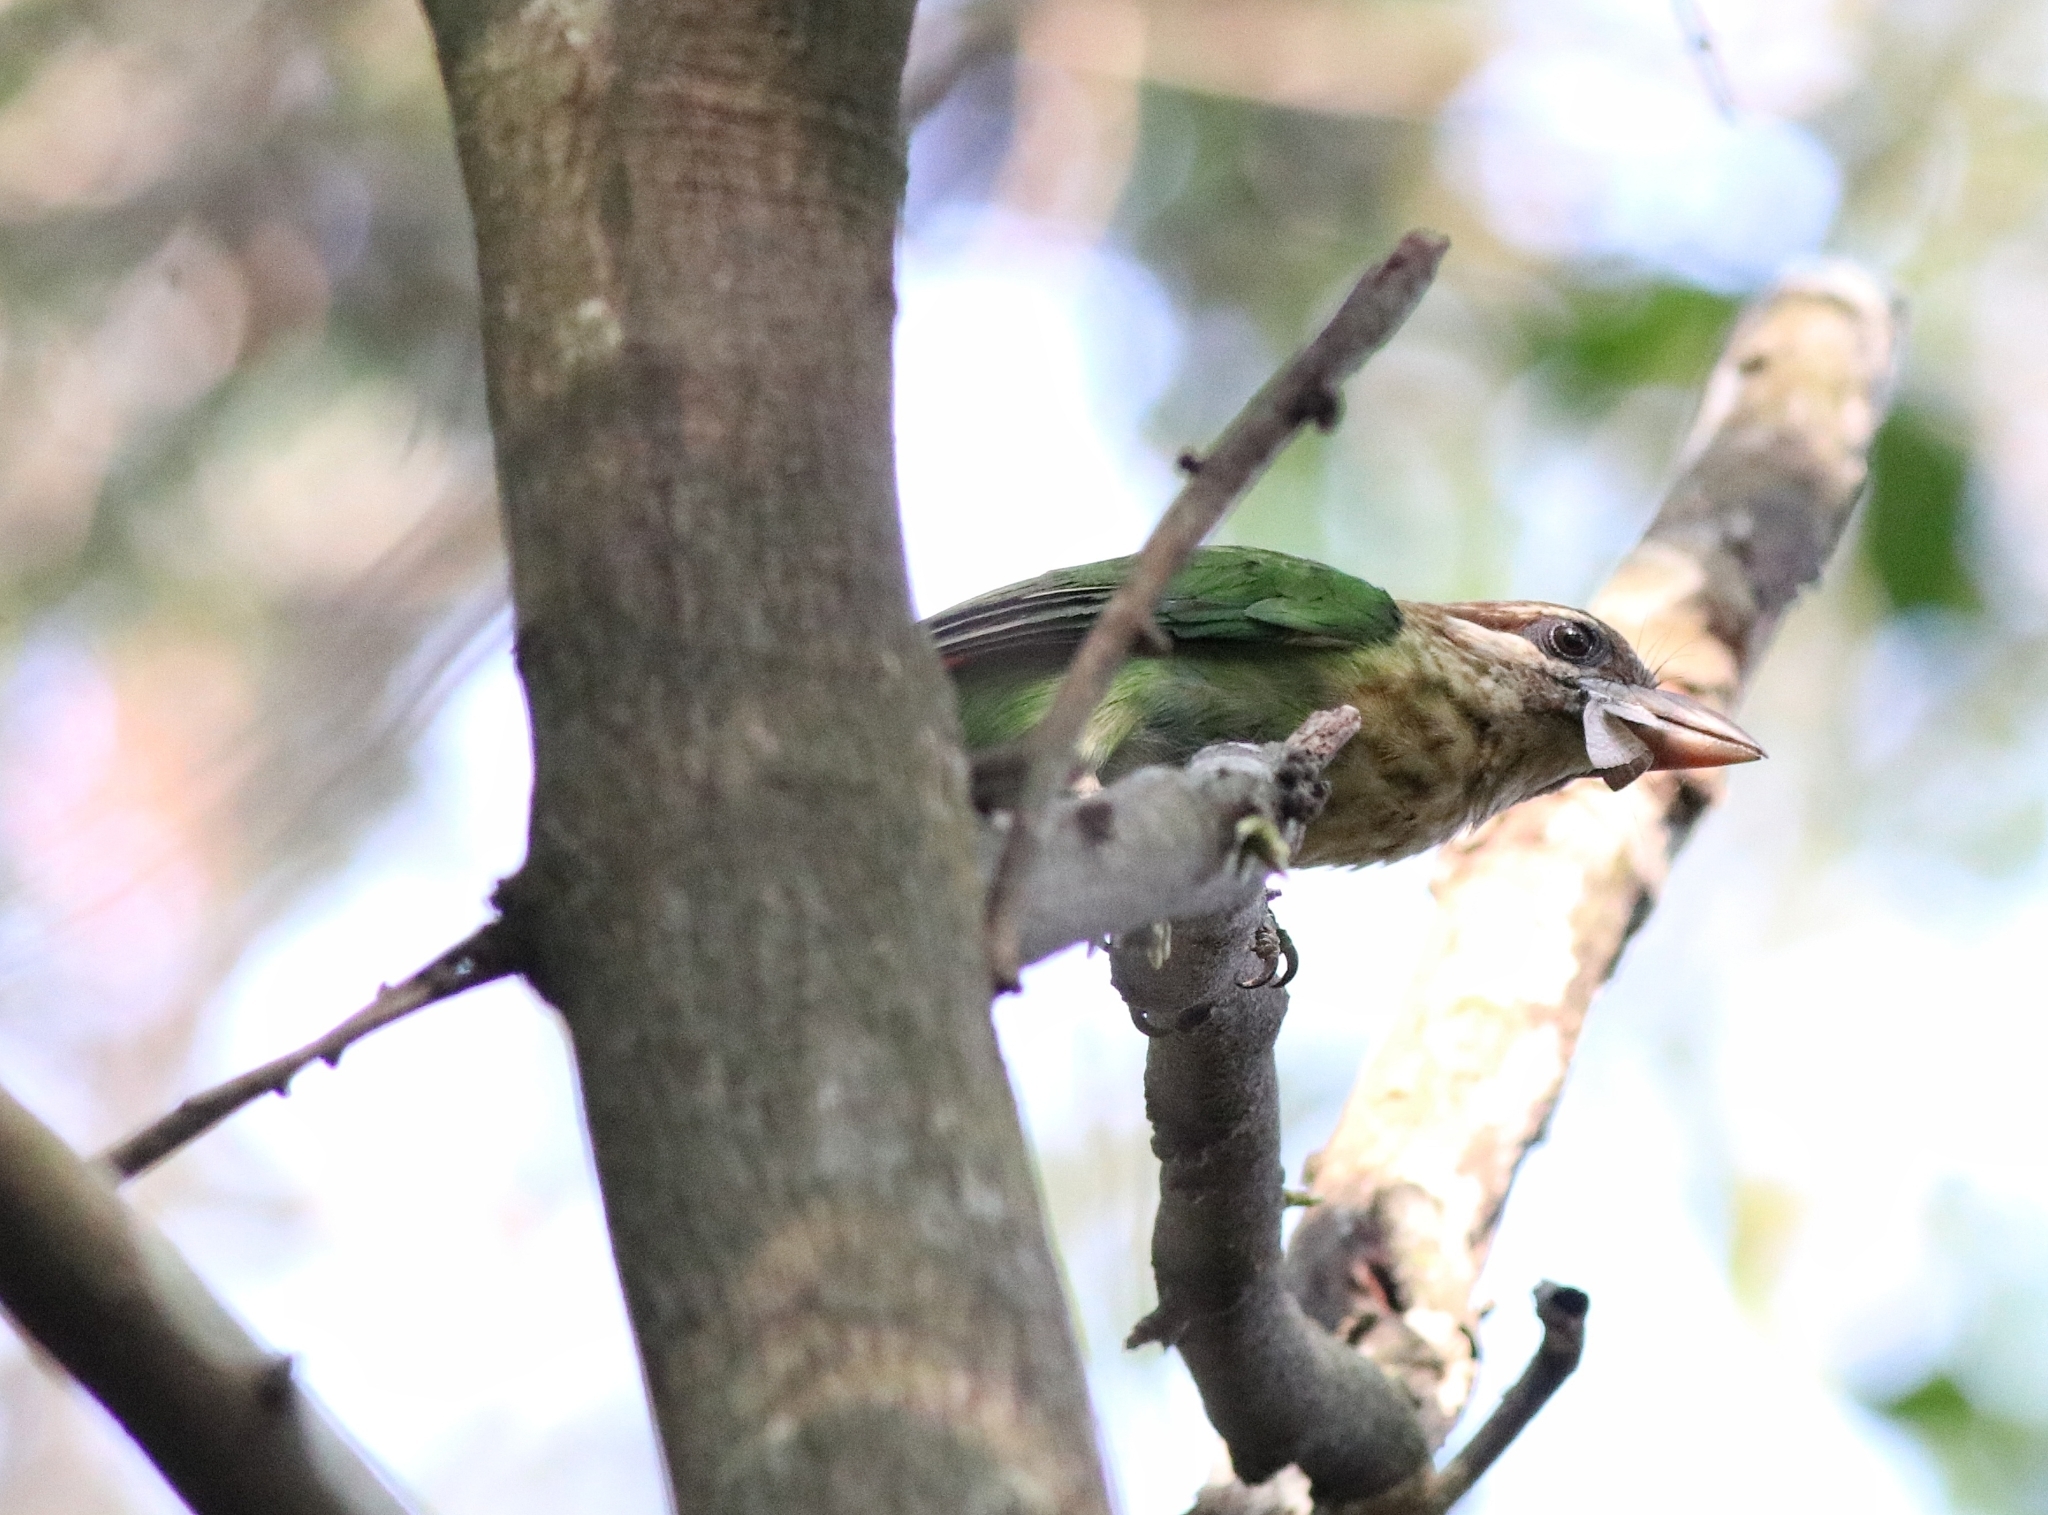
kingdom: Animalia
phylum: Chordata
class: Aves
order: Piciformes
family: Megalaimidae
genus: Psilopogon
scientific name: Psilopogon viridis
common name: White-cheeked barbet
